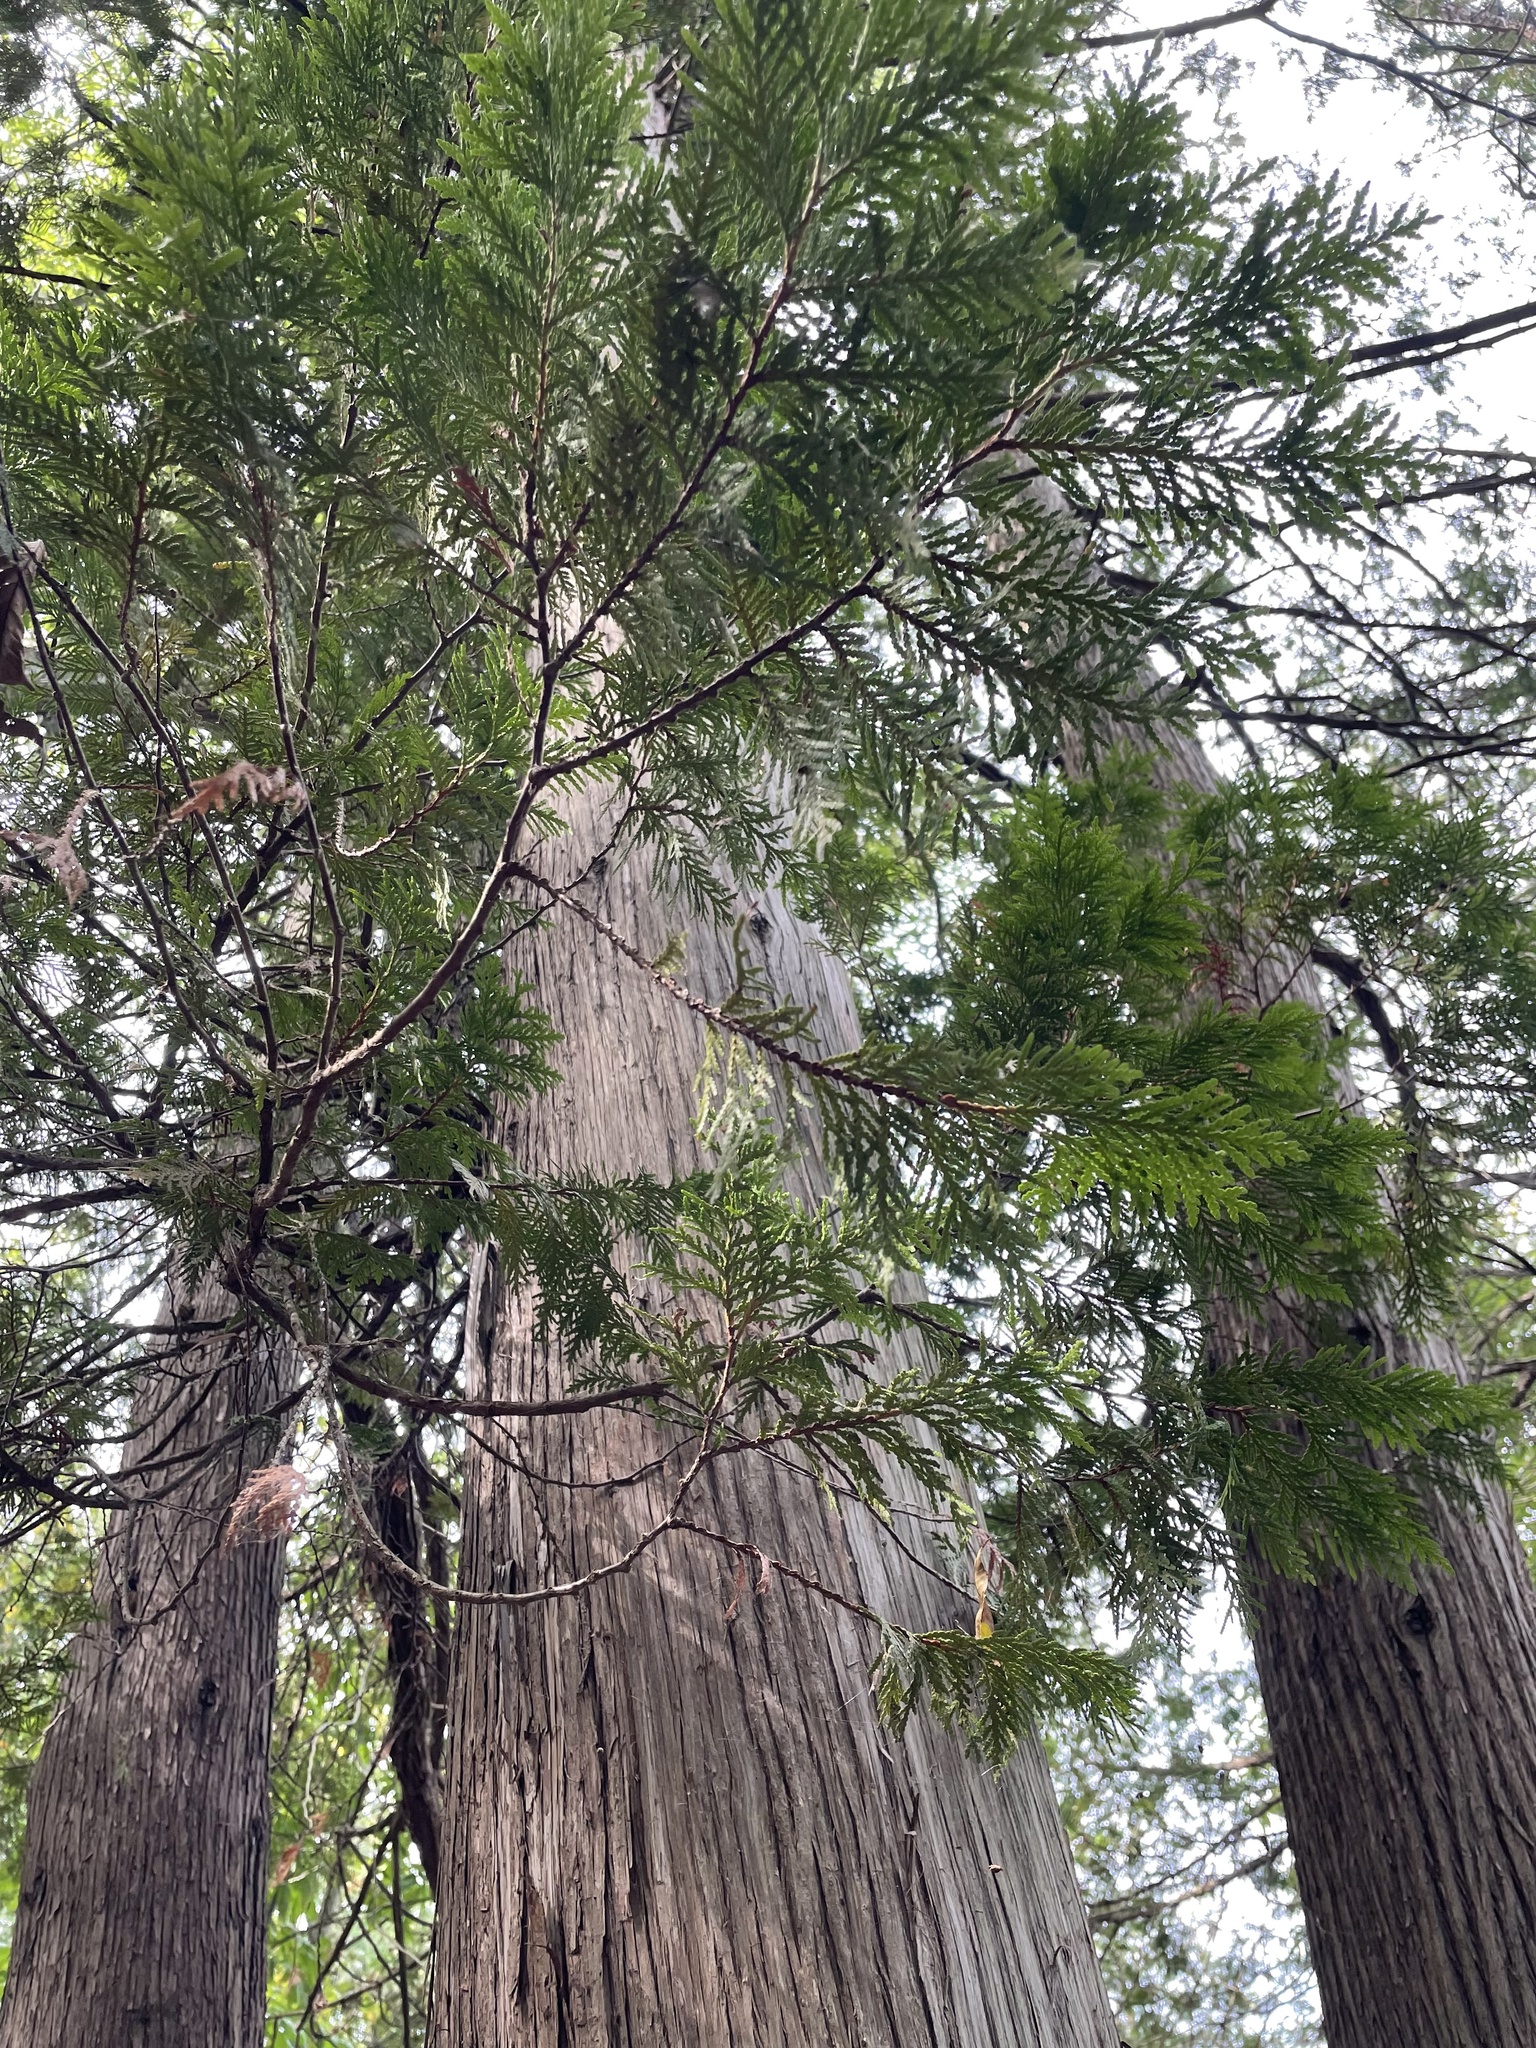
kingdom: Plantae
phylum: Tracheophyta
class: Pinopsida
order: Pinales
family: Cupressaceae
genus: Thuja
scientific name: Thuja occidentalis
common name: Northern white-cedar
